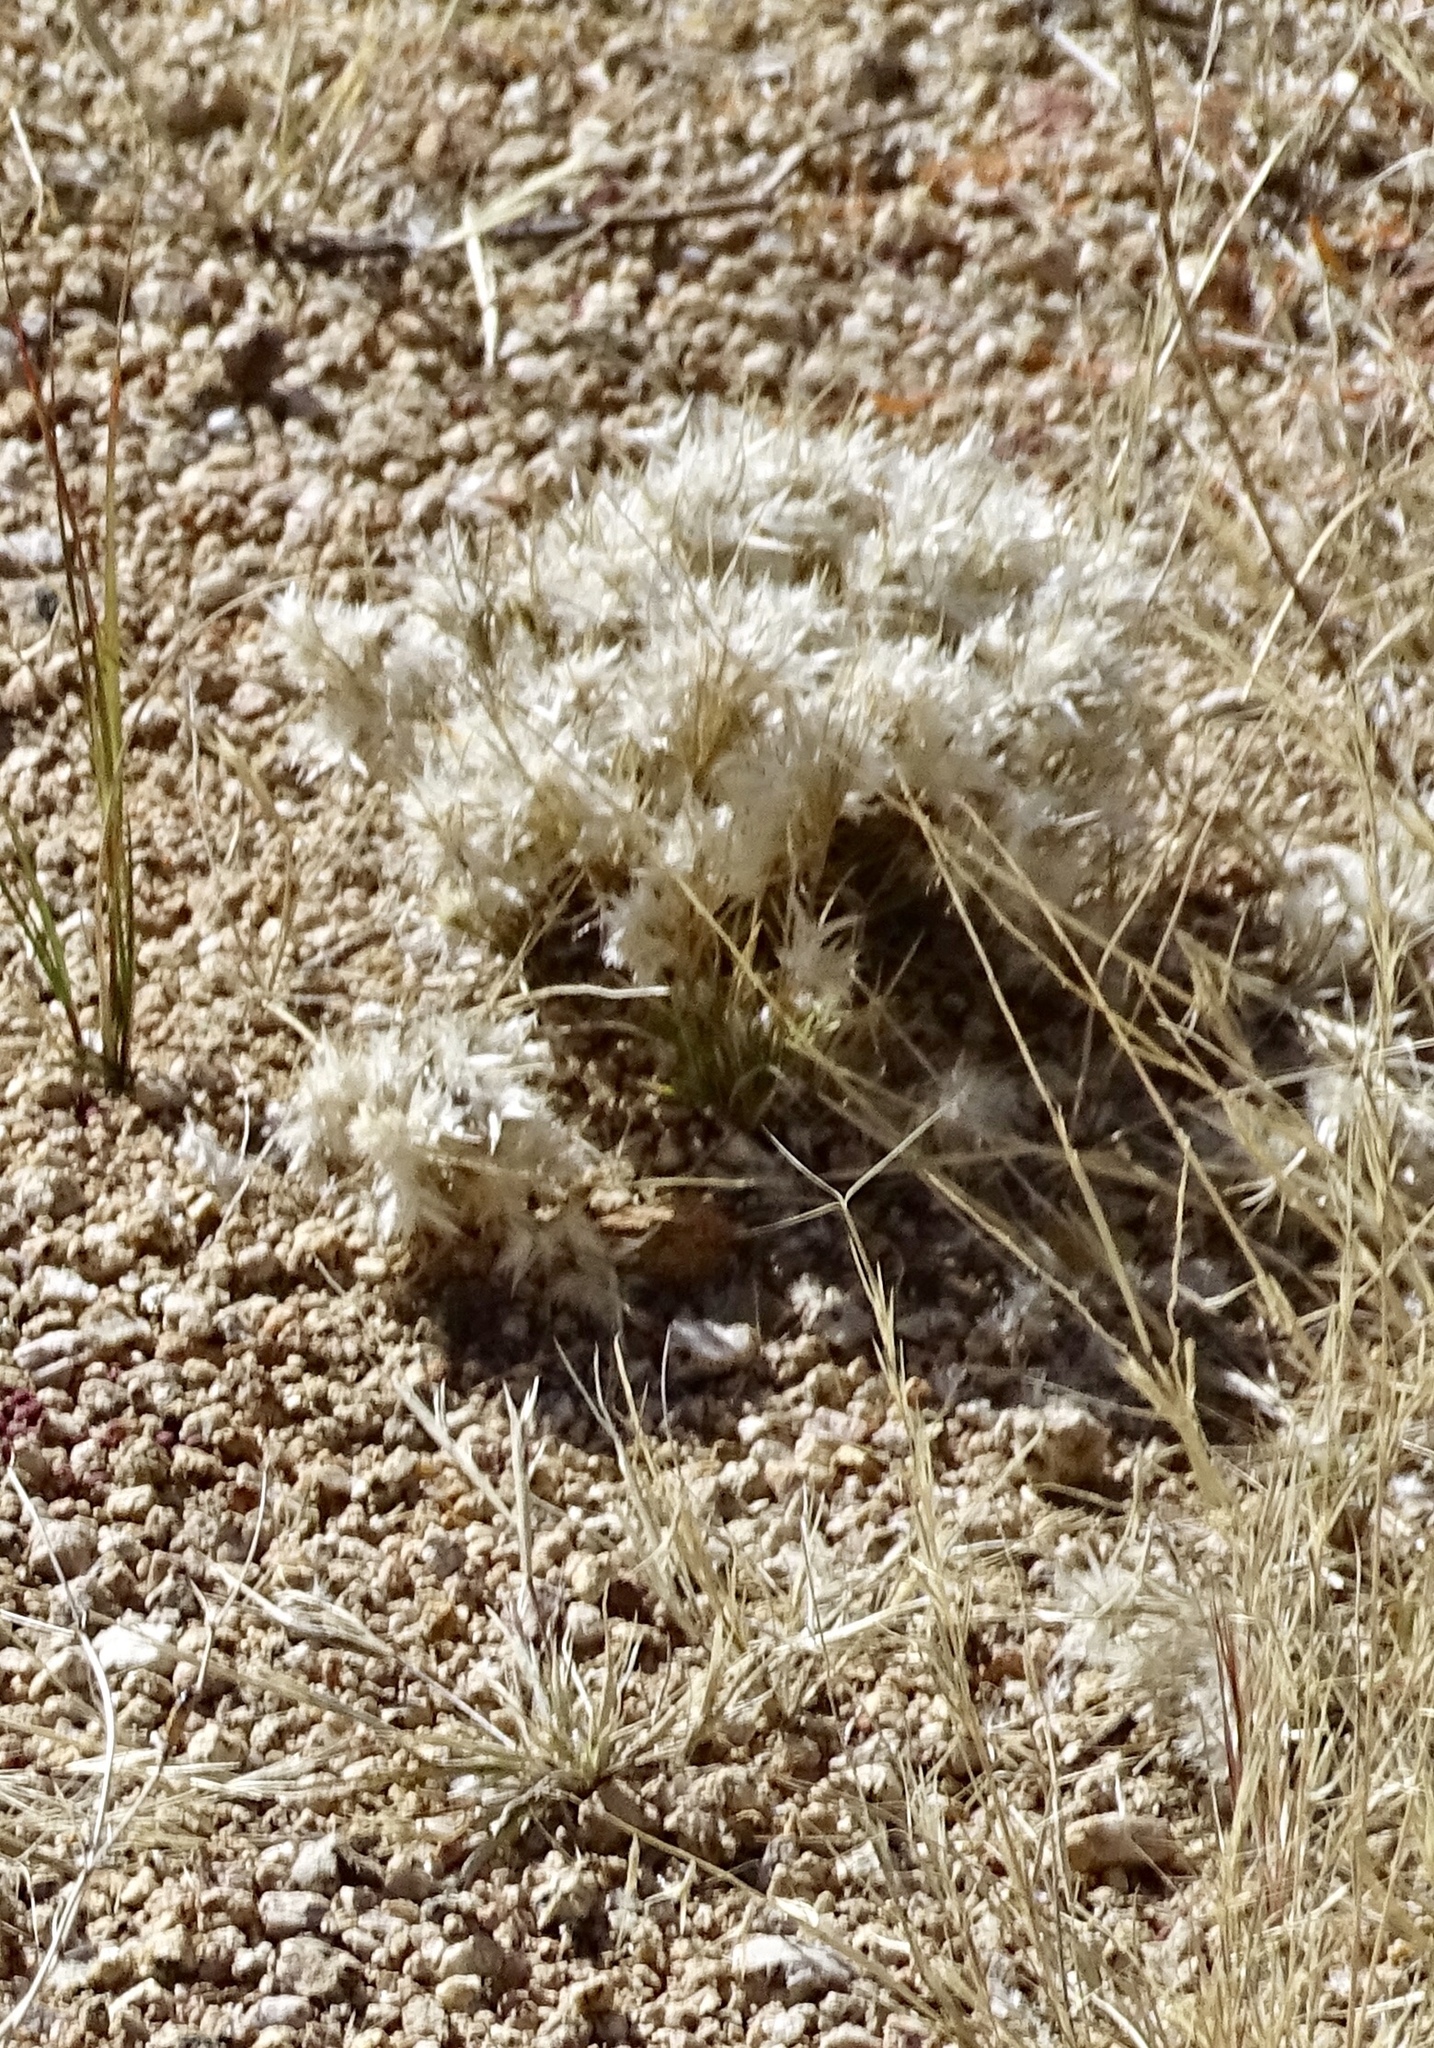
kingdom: Plantae
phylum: Tracheophyta
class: Liliopsida
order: Poales
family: Poaceae
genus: Dasyochloa
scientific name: Dasyochloa pulchella
